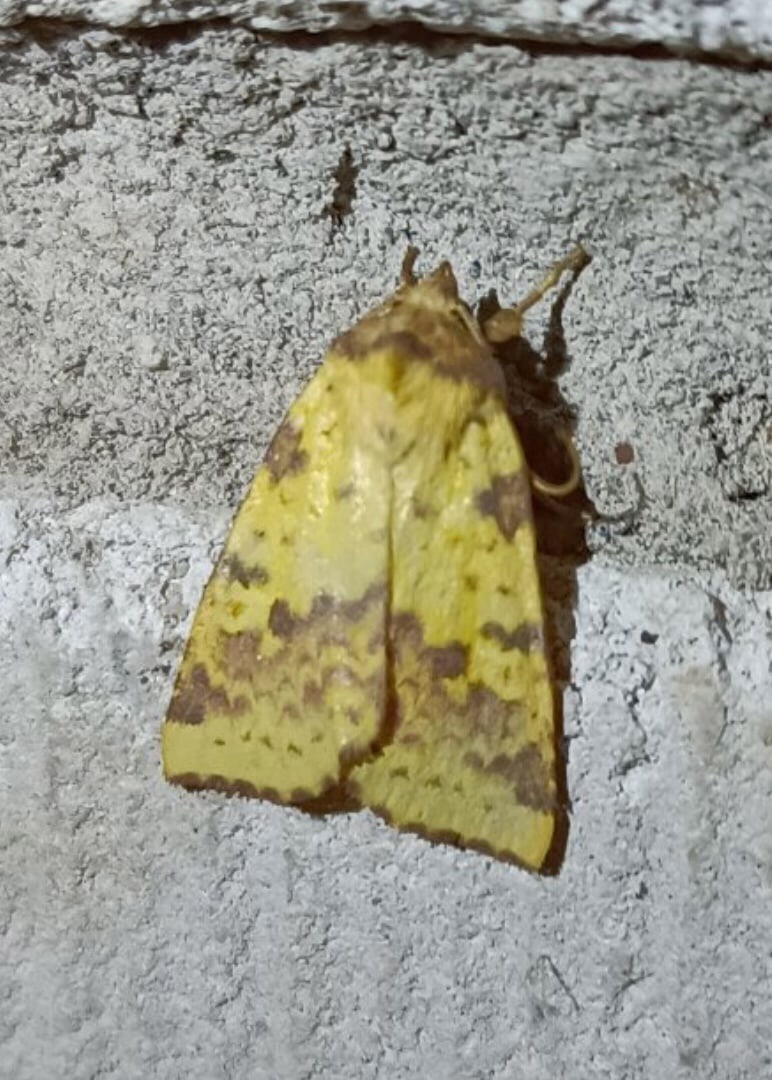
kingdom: Animalia
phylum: Arthropoda
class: Insecta
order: Lepidoptera
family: Noctuidae
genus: Xanthia
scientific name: Xanthia togata
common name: Pink-barred sallow
